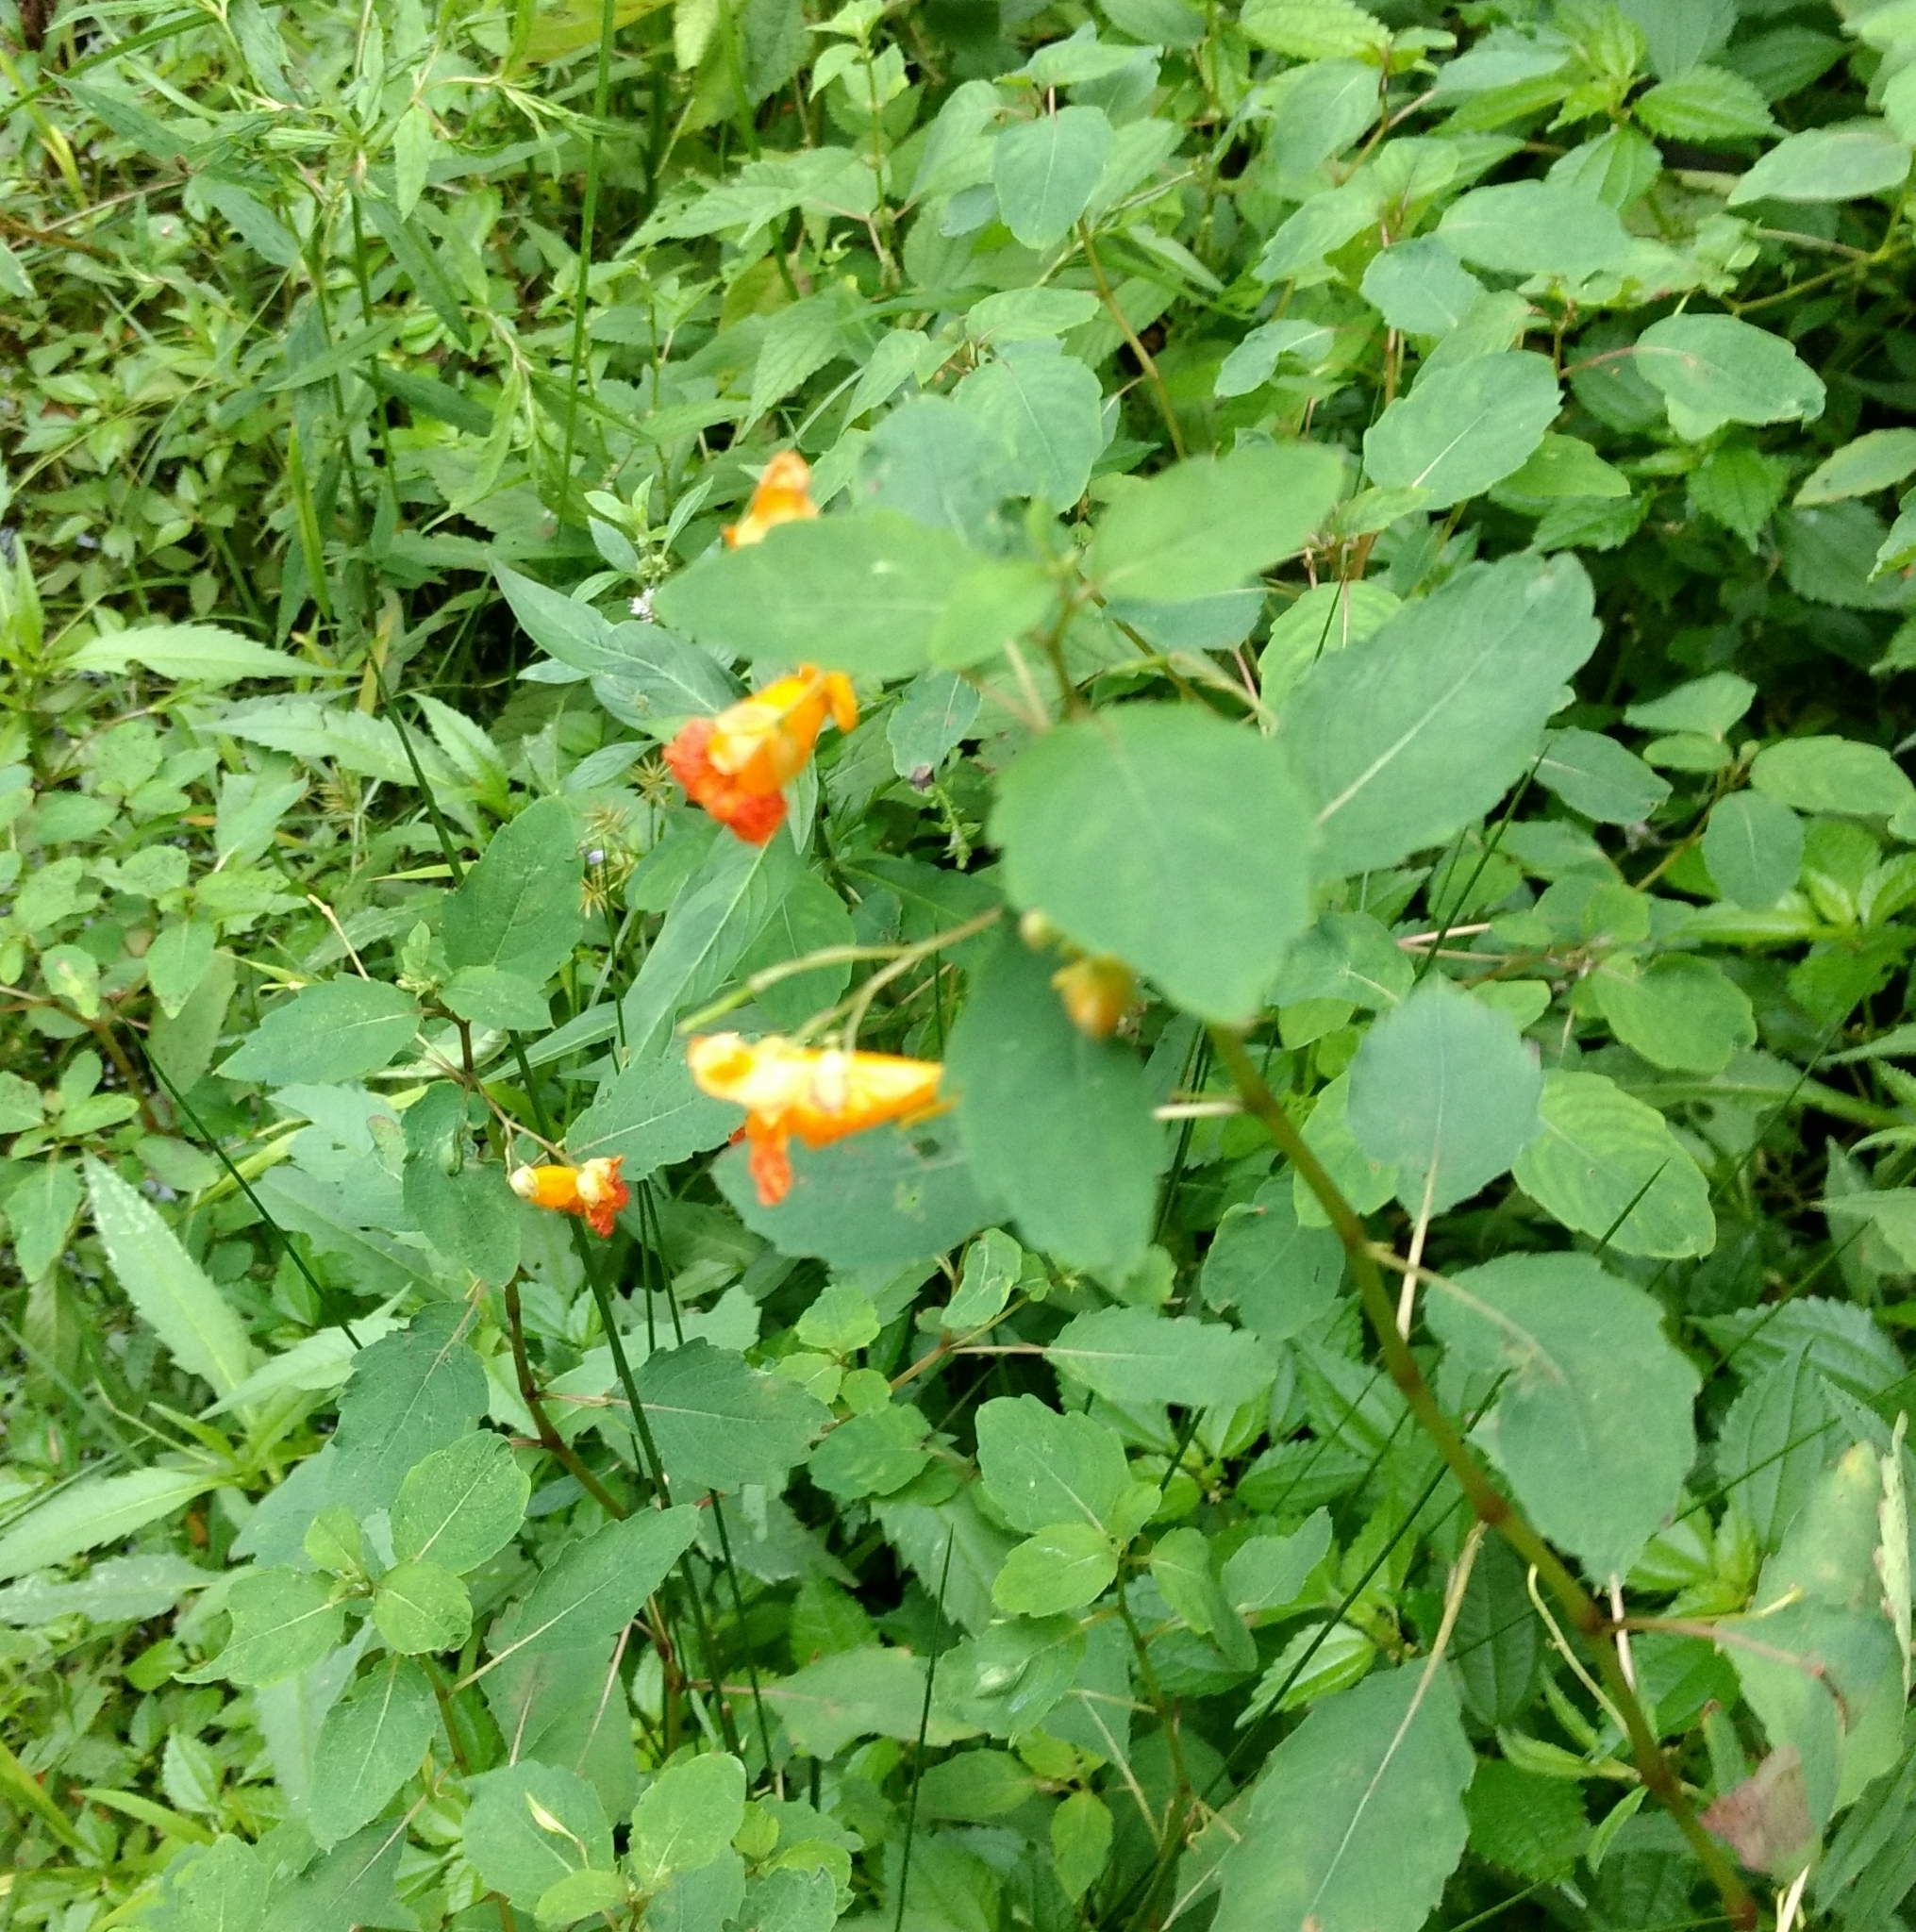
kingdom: Plantae
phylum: Tracheophyta
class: Magnoliopsida
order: Ericales
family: Balsaminaceae
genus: Impatiens
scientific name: Impatiens capensis
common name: Orange balsam
